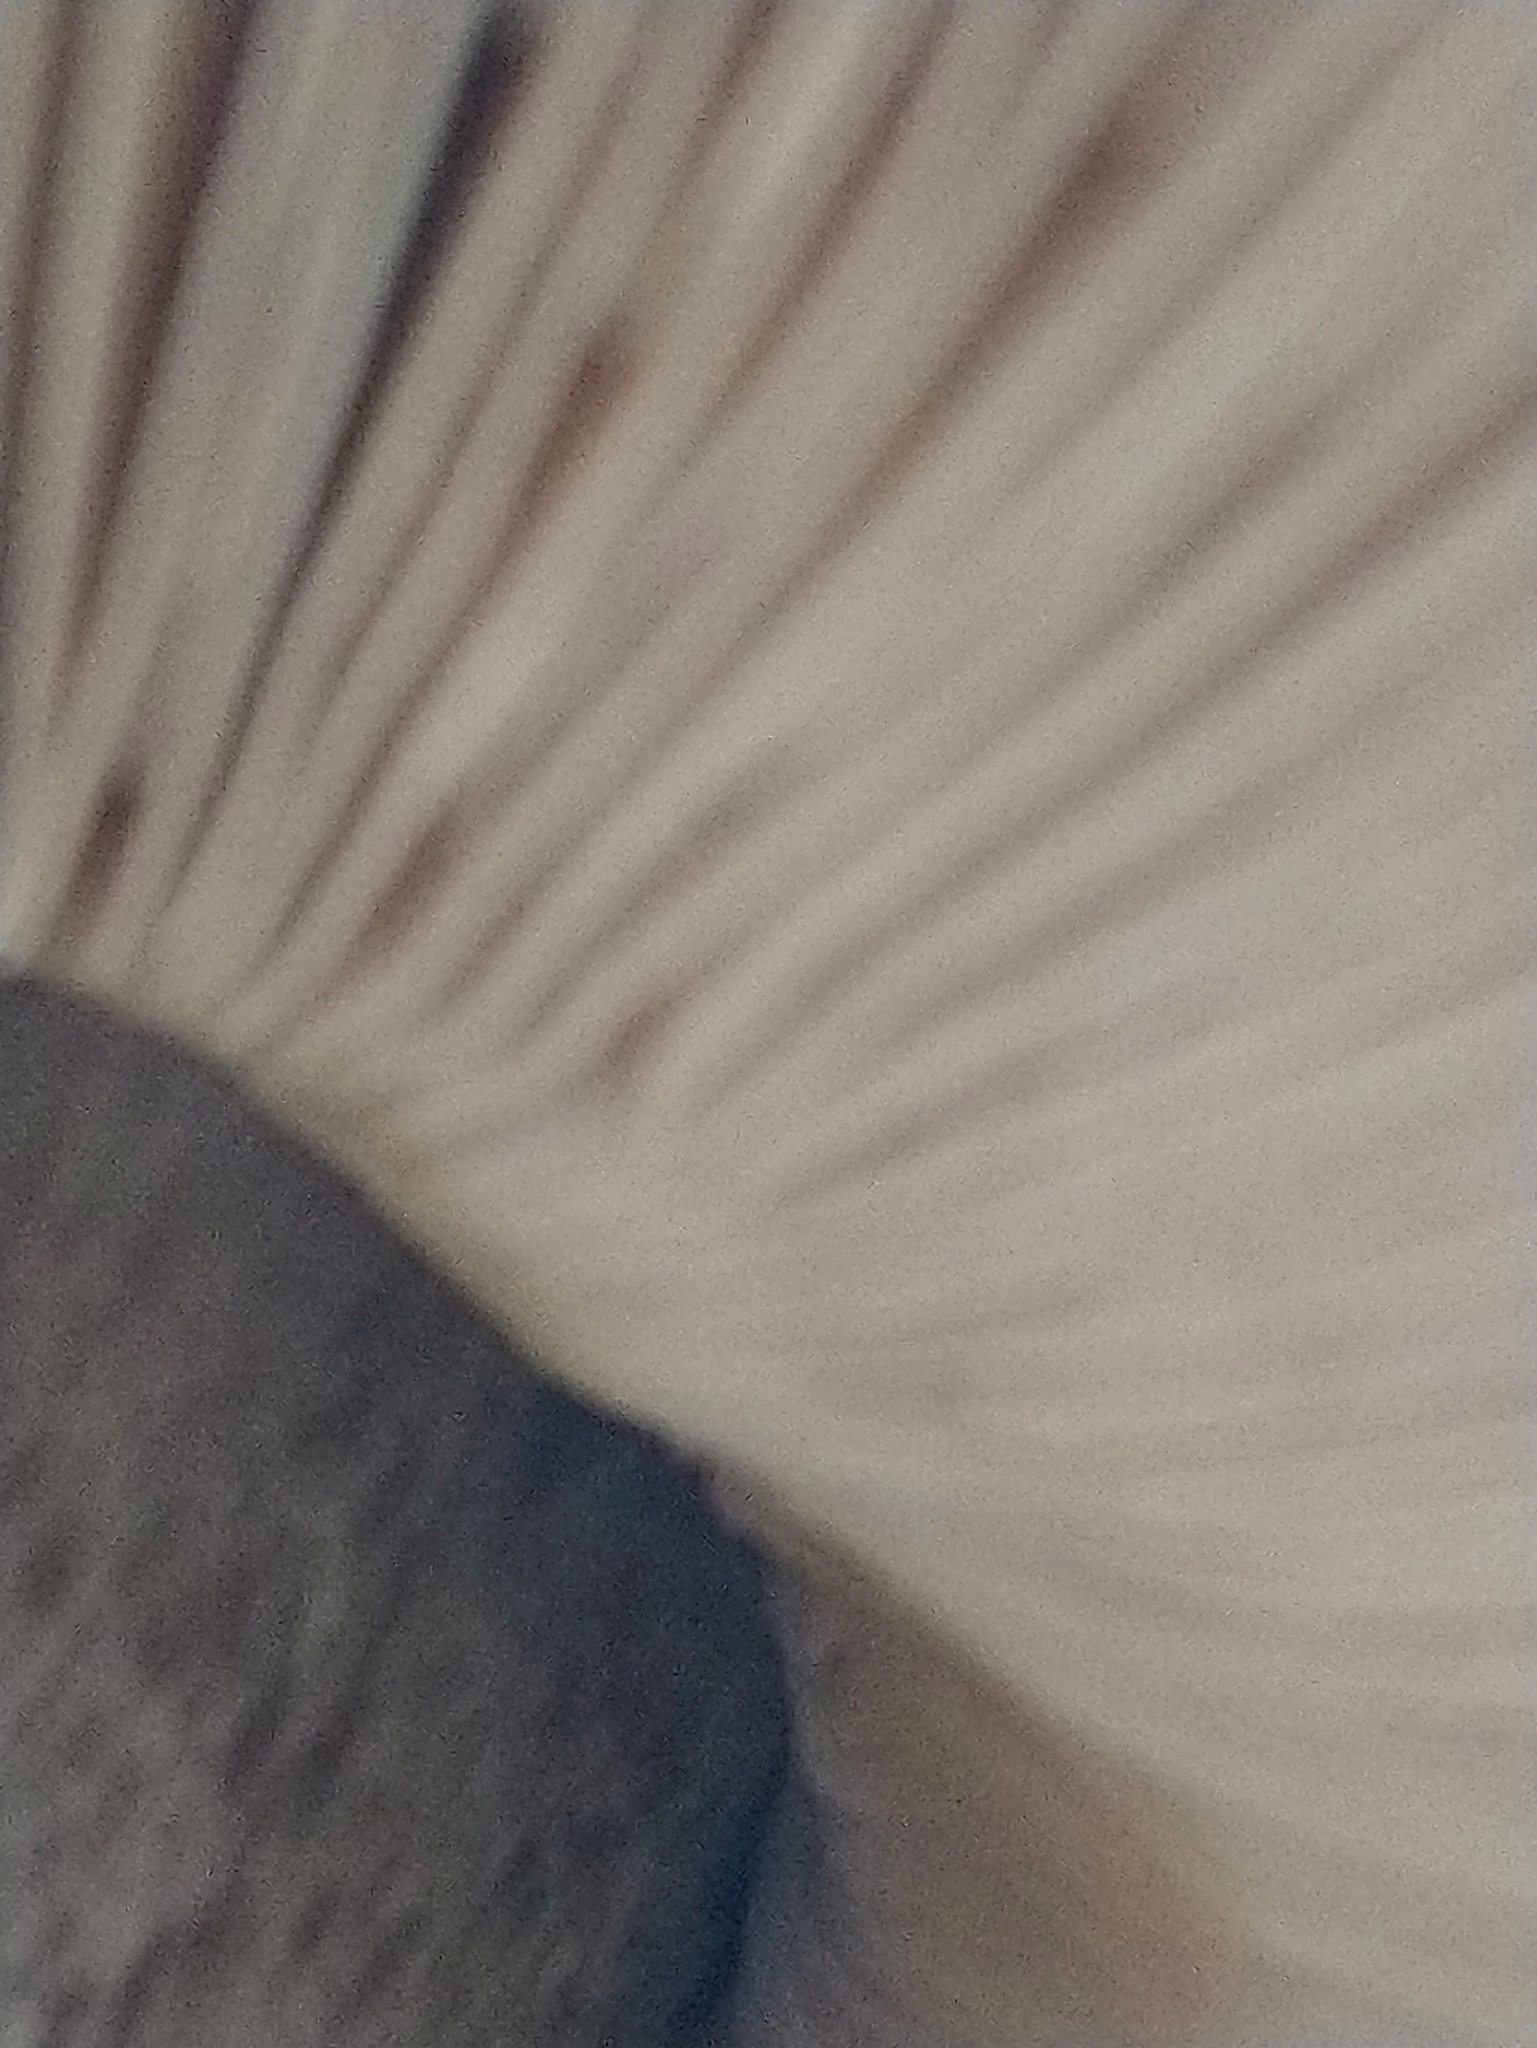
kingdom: Fungi
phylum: Basidiomycota
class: Agaricomycetes
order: Agaricales
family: Pluteaceae
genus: Pluteus
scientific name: Pluteus atromarginatus
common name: Blackedged shield
